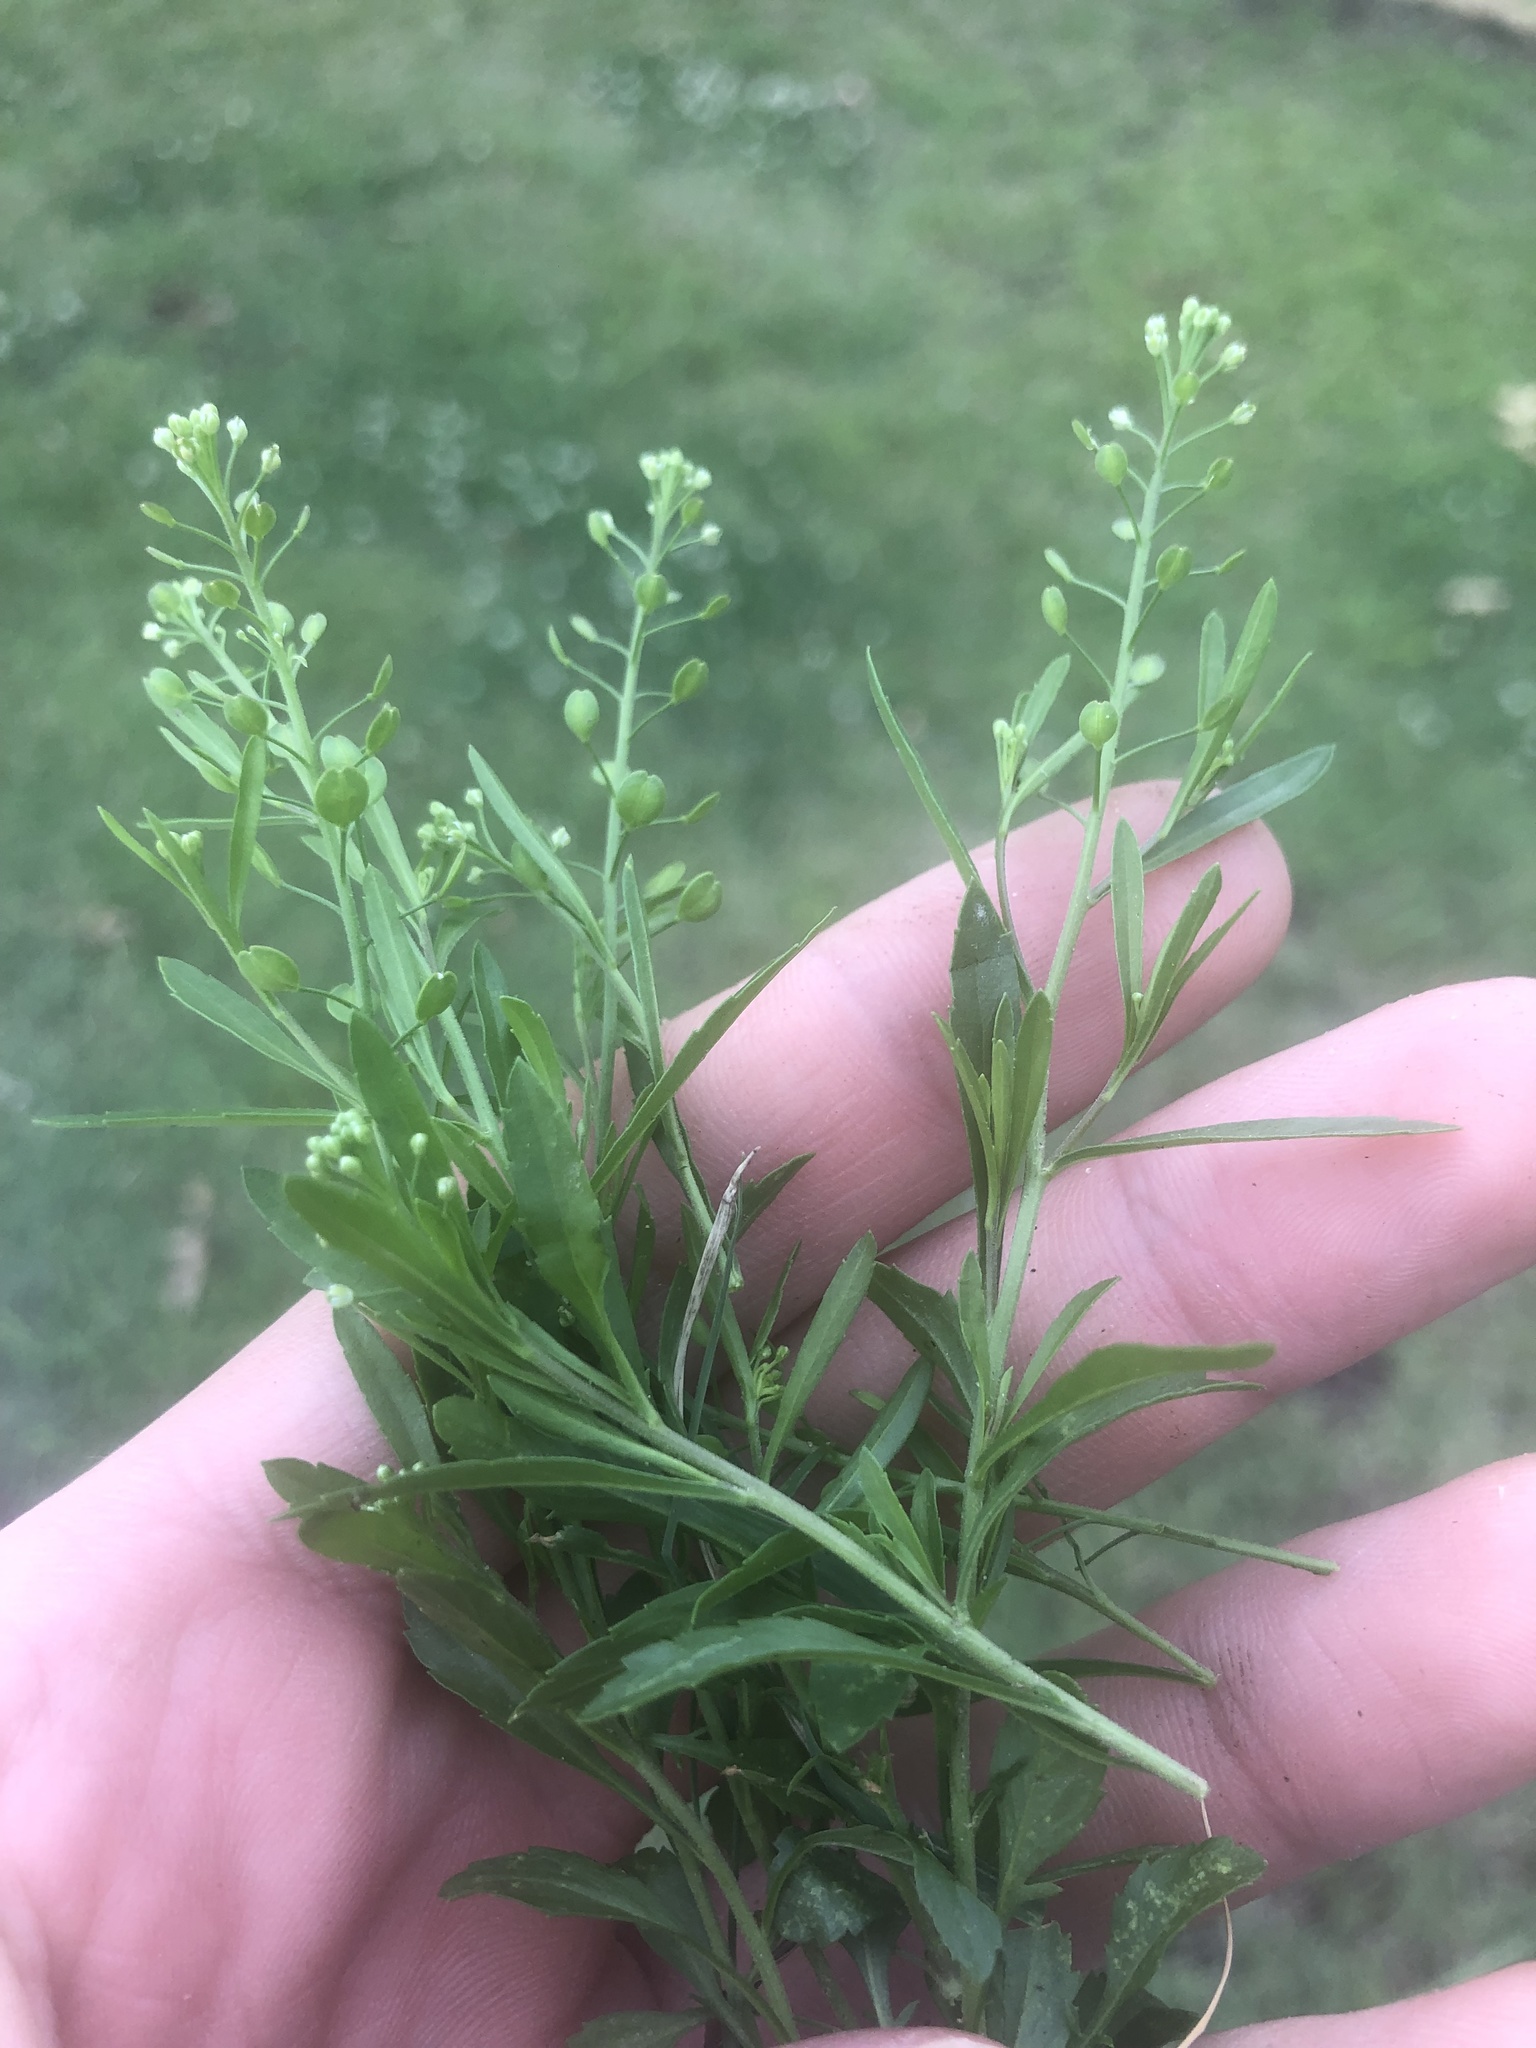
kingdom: Plantae
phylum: Tracheophyta
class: Magnoliopsida
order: Brassicales
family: Brassicaceae
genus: Lepidium
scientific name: Lepidium densiflorum
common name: Miner's pepperwort
